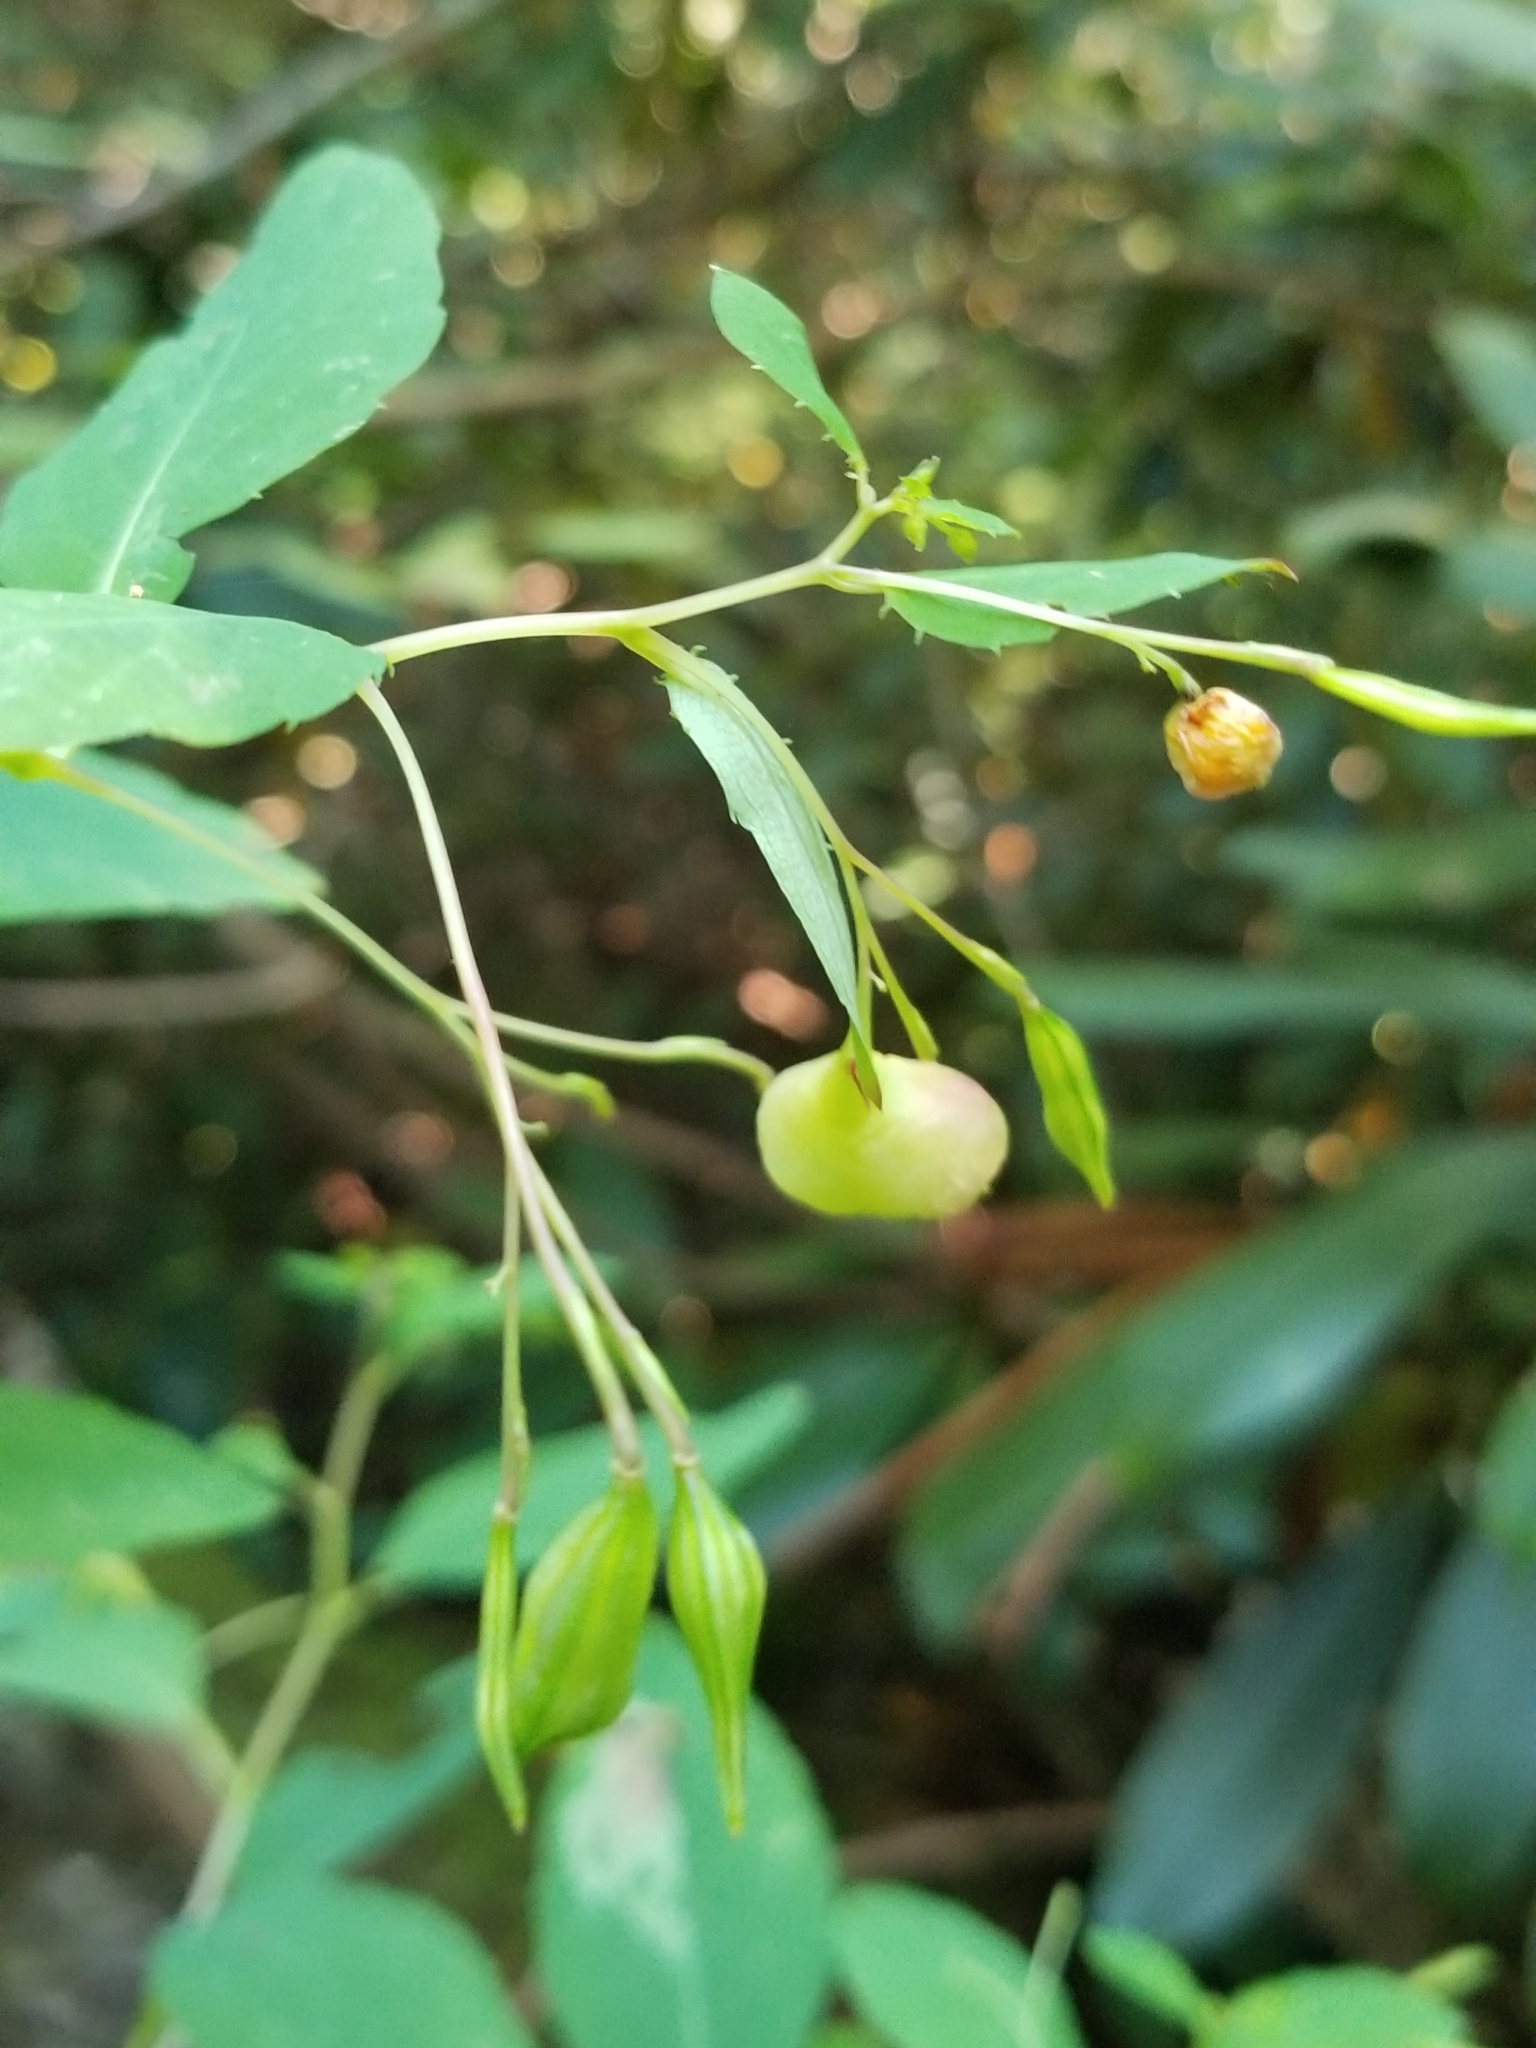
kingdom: Animalia
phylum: Arthropoda
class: Insecta
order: Diptera
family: Cecidomyiidae
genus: Schizomyia
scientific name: Schizomyia impatientis
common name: Jewelweed gall midge
